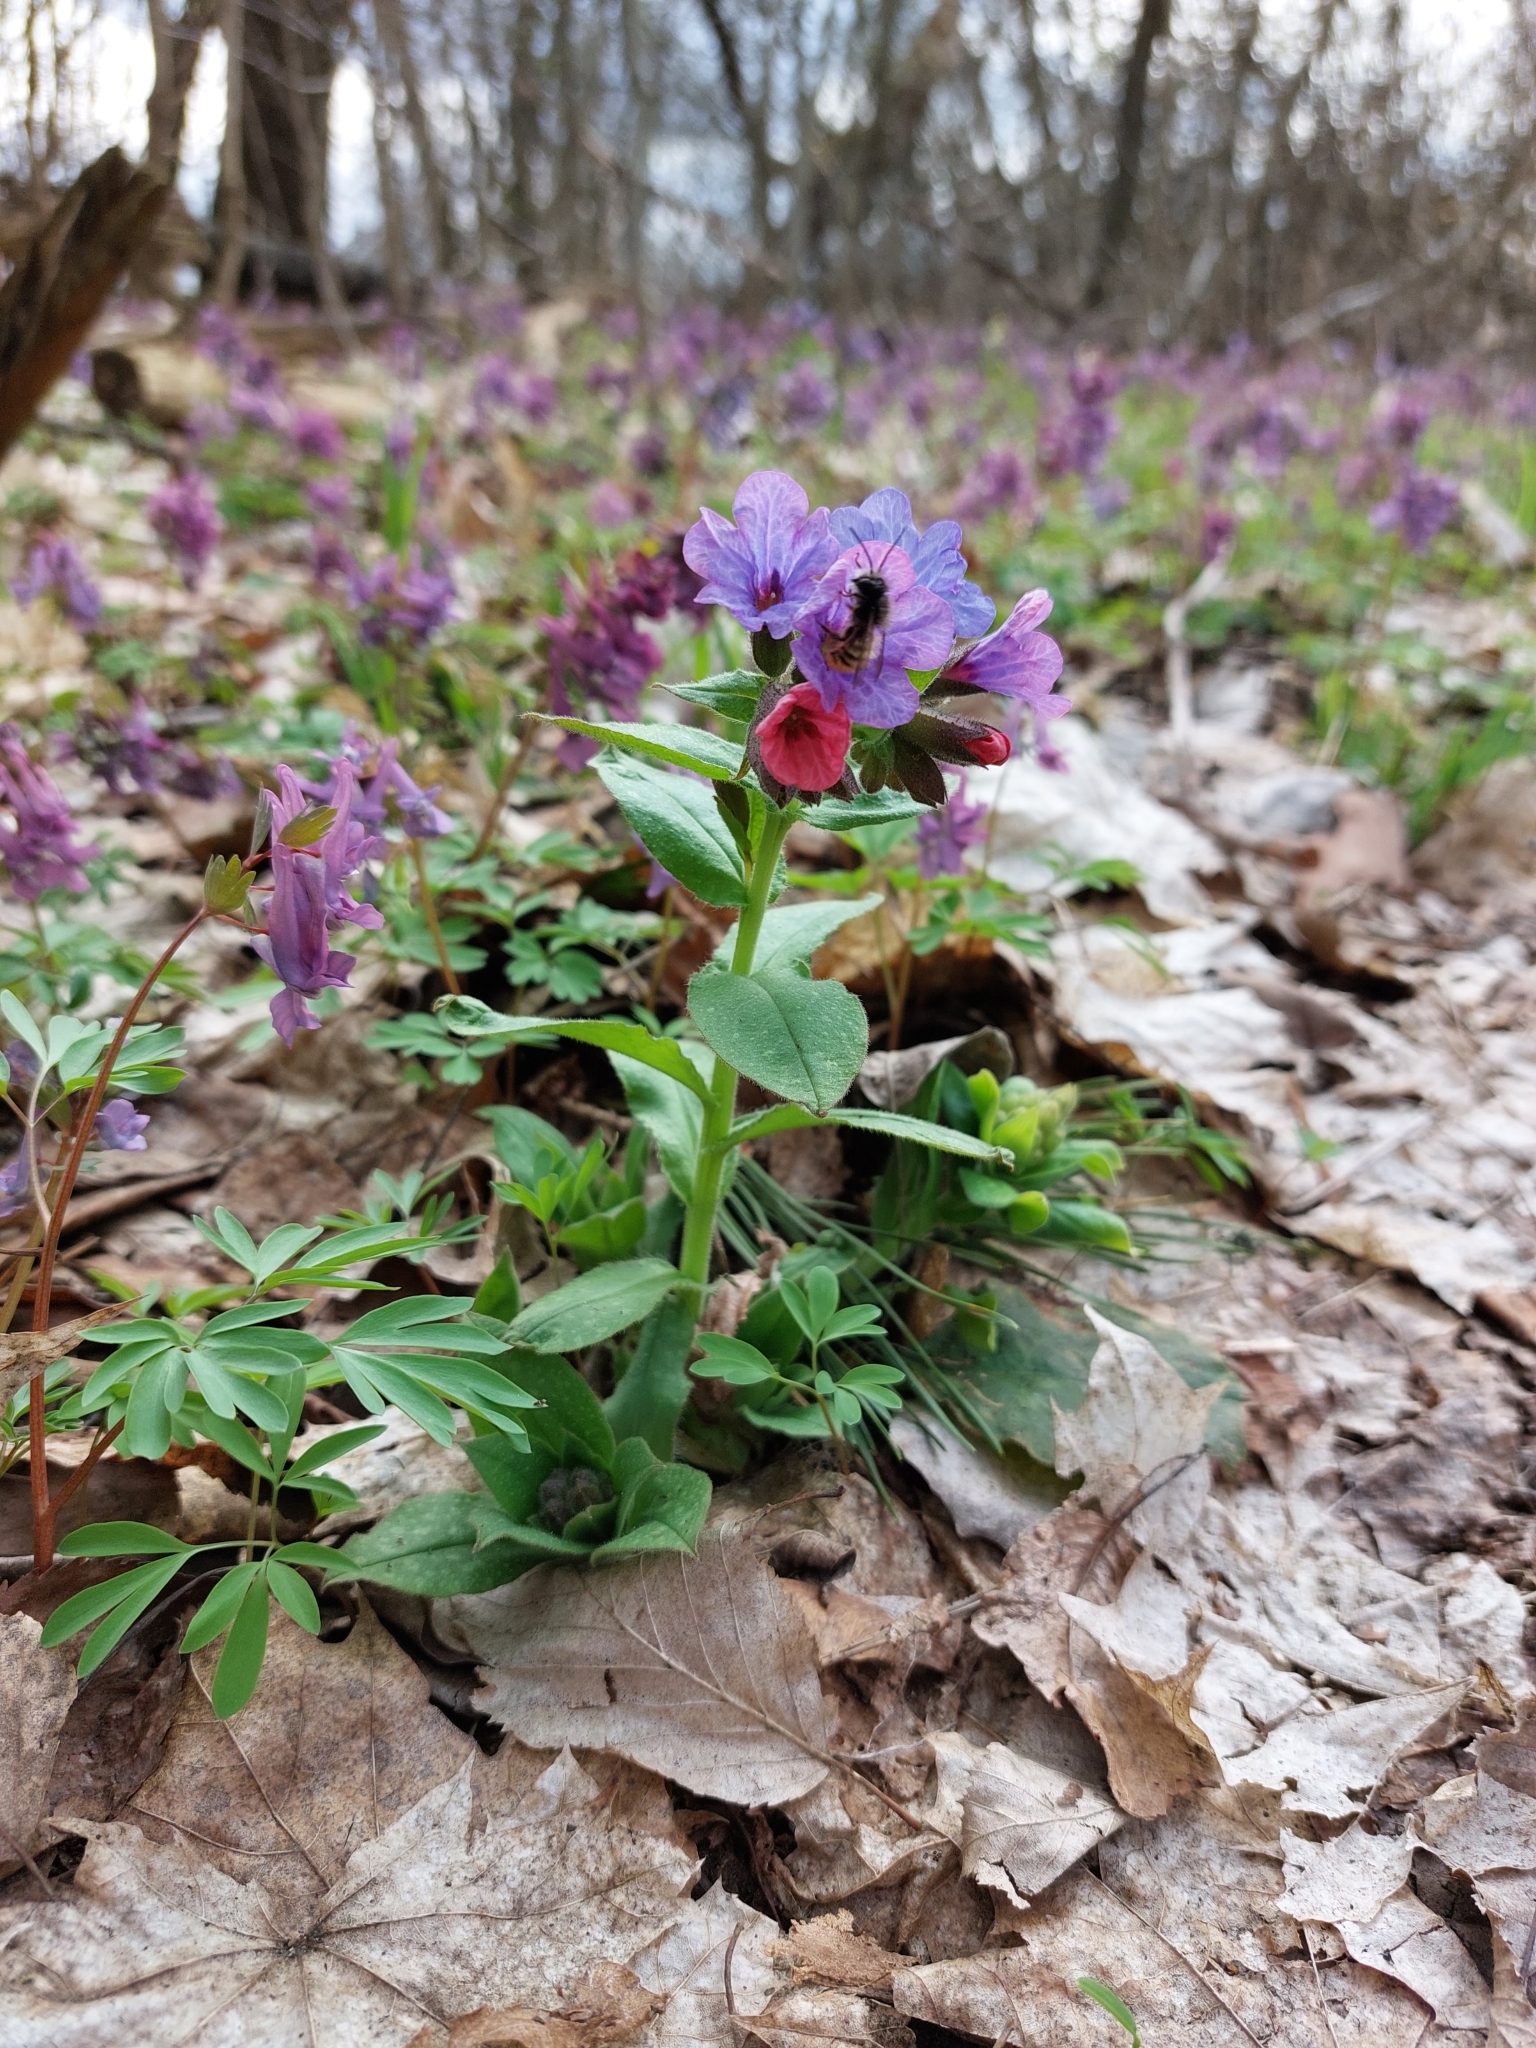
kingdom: Plantae
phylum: Tracheophyta
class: Magnoliopsida
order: Boraginales
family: Boraginaceae
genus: Pulmonaria
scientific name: Pulmonaria obscura
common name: Suffolk lungwort
